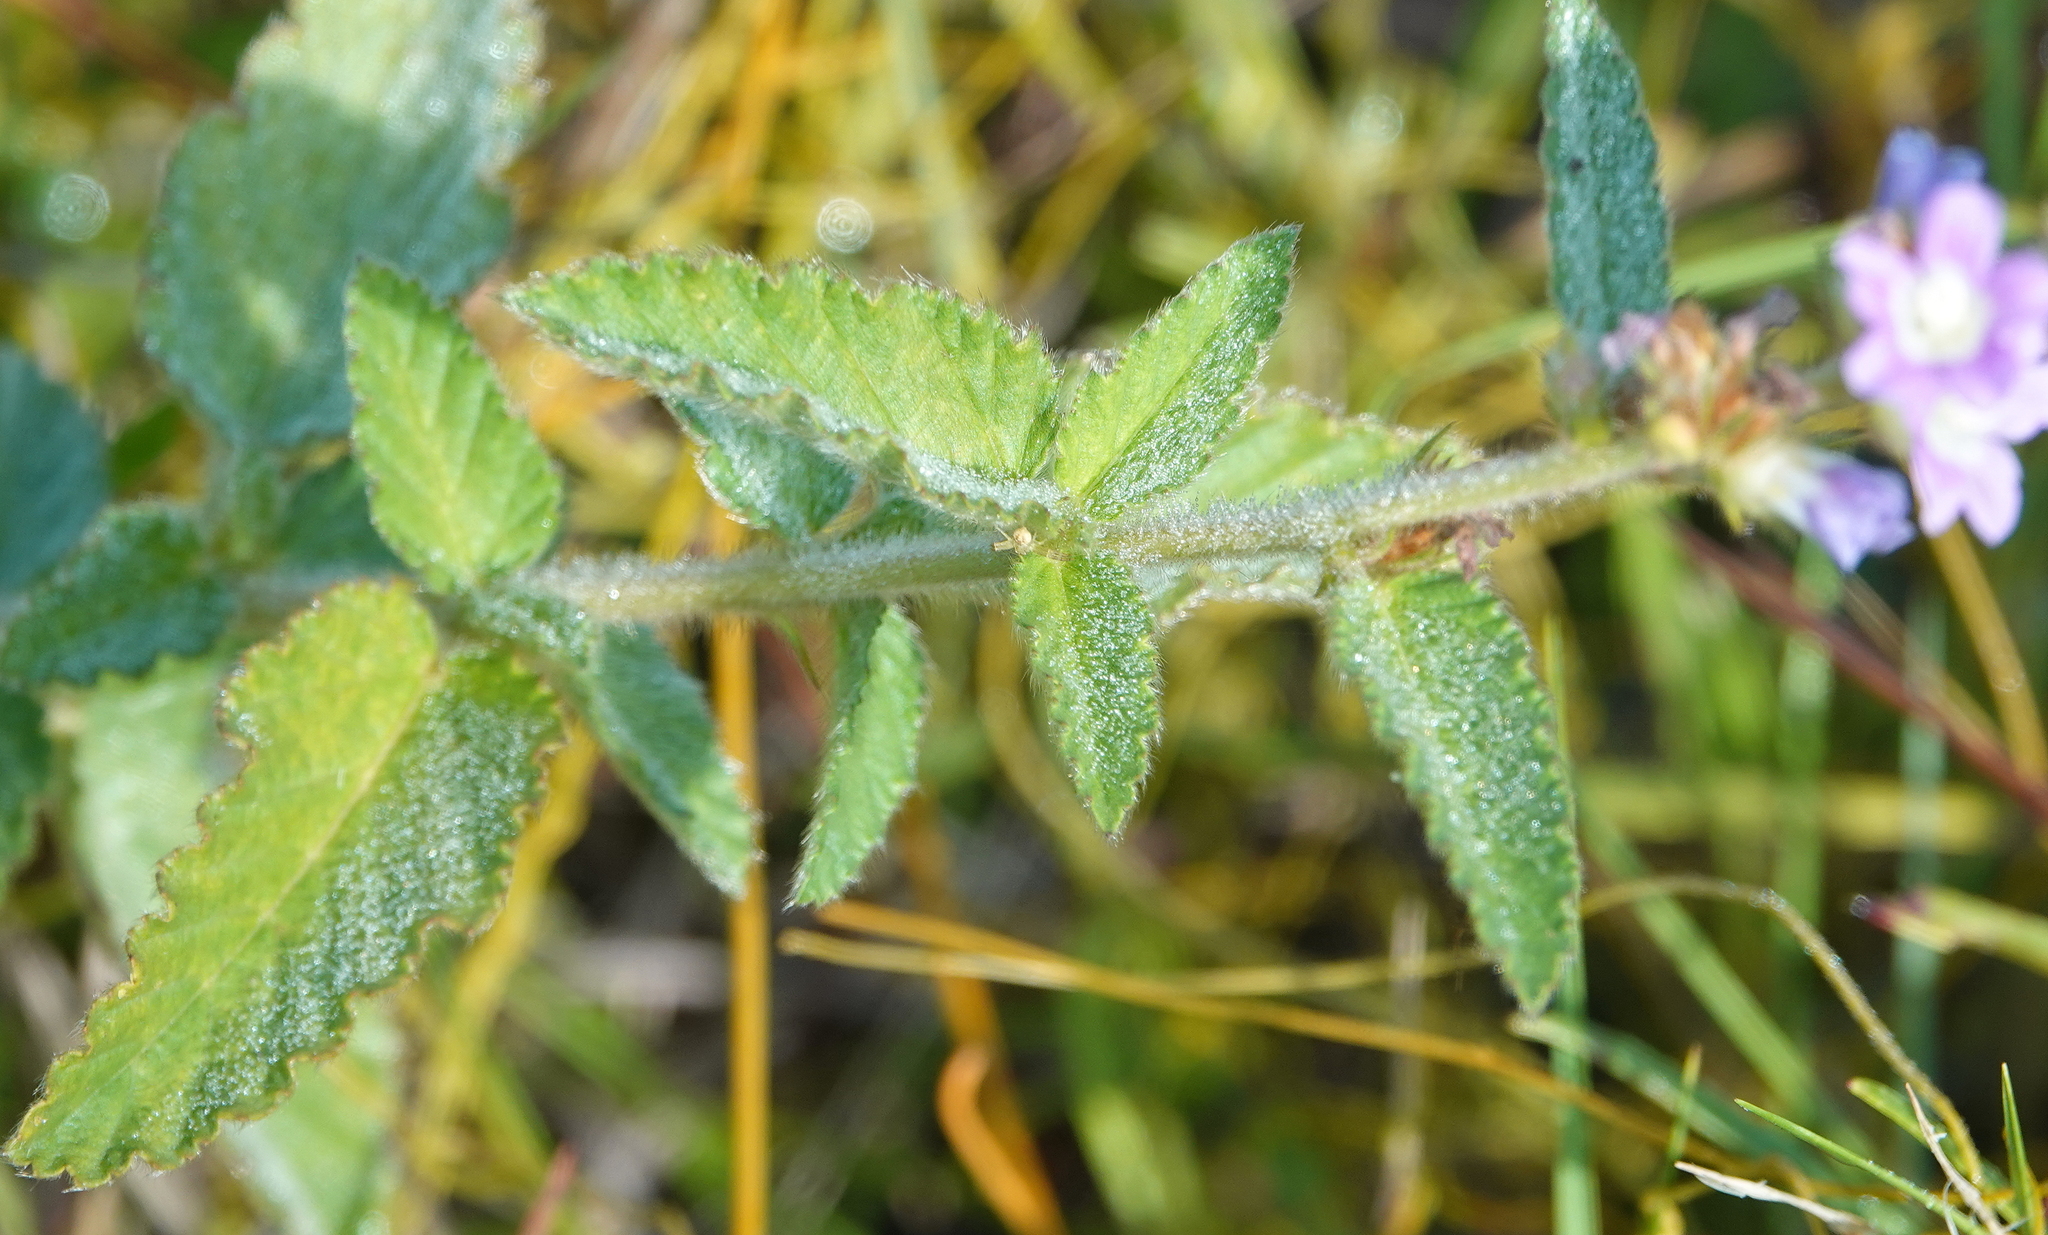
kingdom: Plantae
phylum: Tracheophyta
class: Magnoliopsida
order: Malvales
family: Malvaceae
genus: Melochia
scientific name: Melochia spicata
